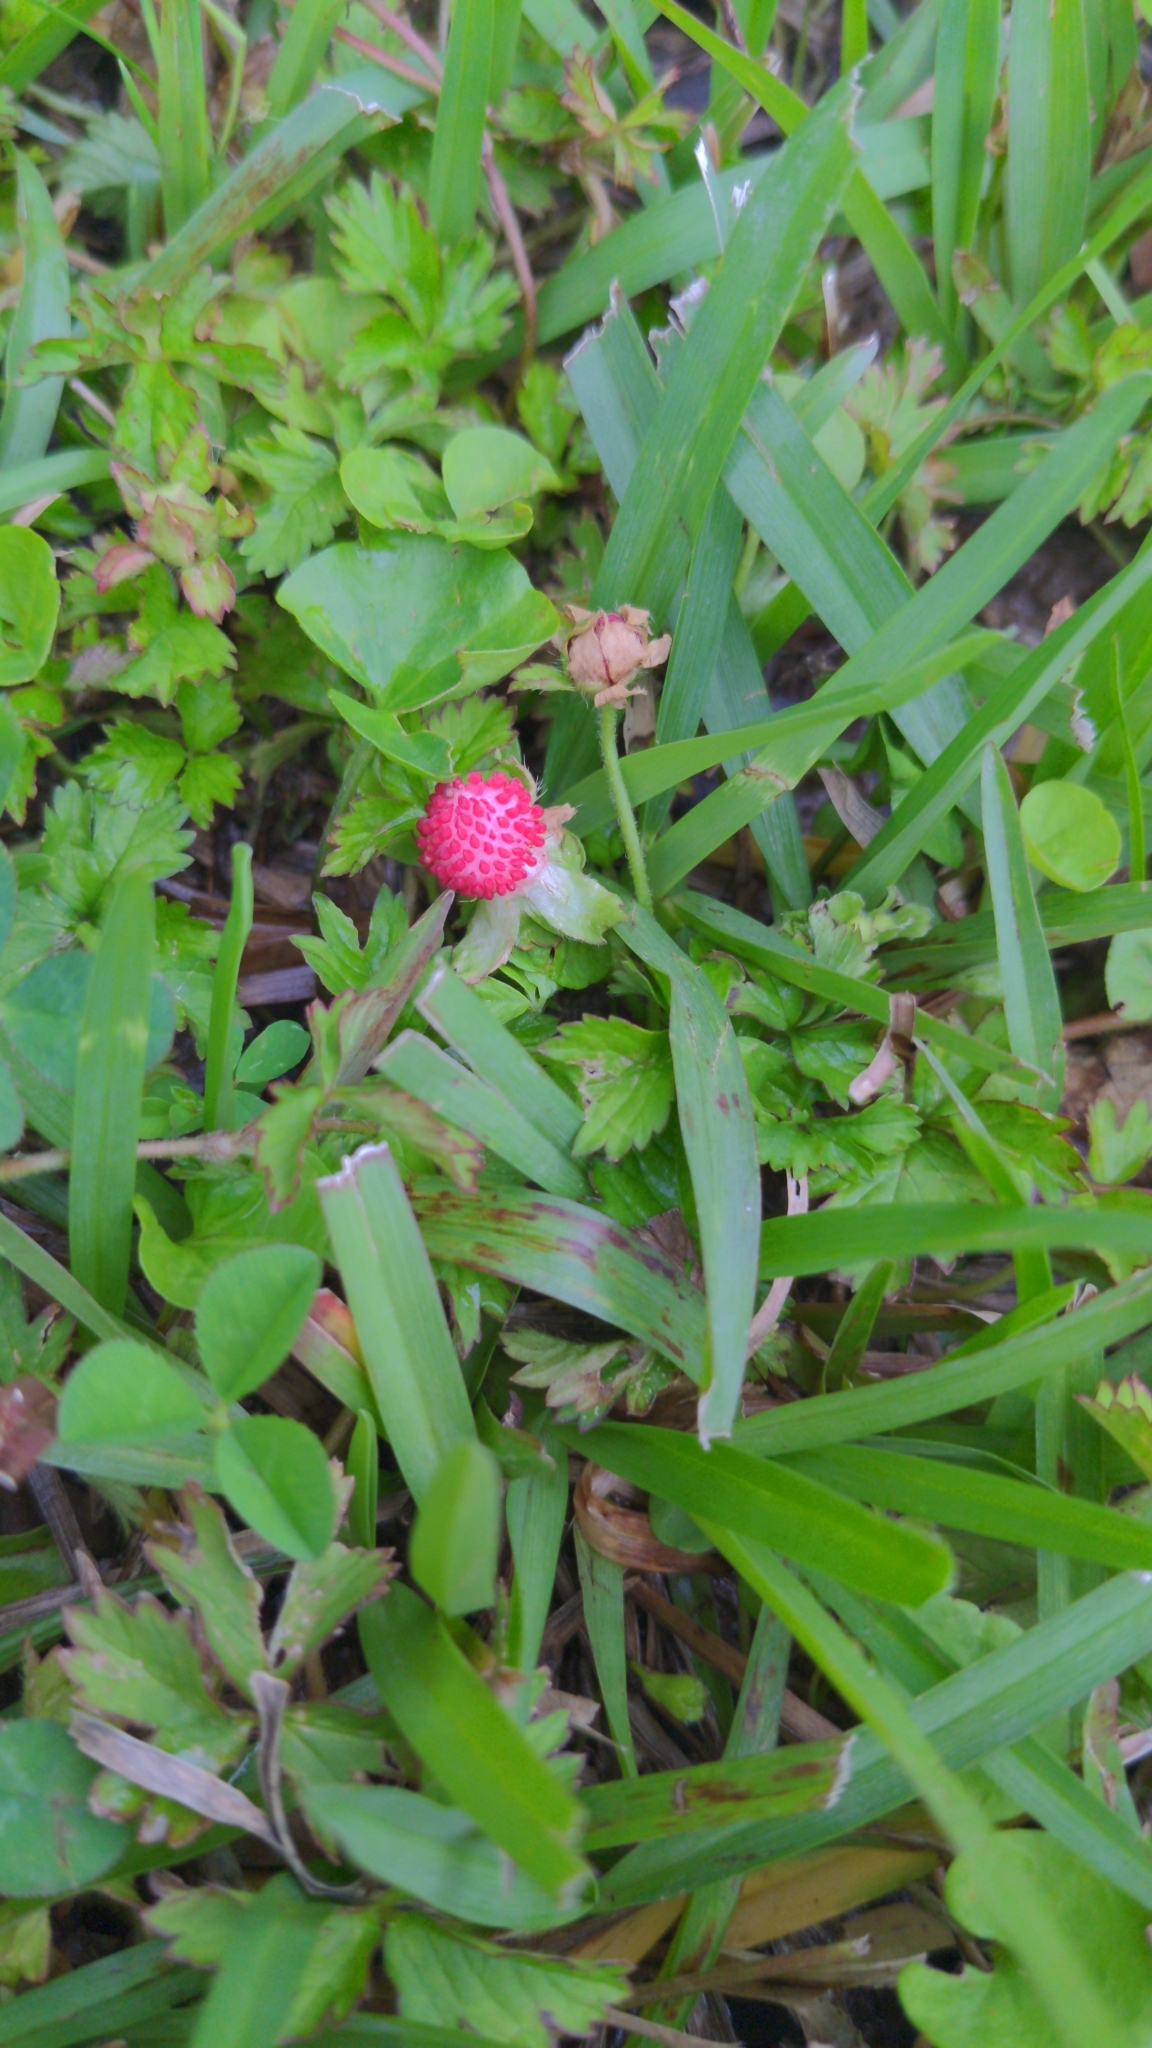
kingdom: Plantae
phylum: Tracheophyta
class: Magnoliopsida
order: Rosales
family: Rosaceae
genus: Potentilla
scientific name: Potentilla indica
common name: Yellow-flowered strawberry
